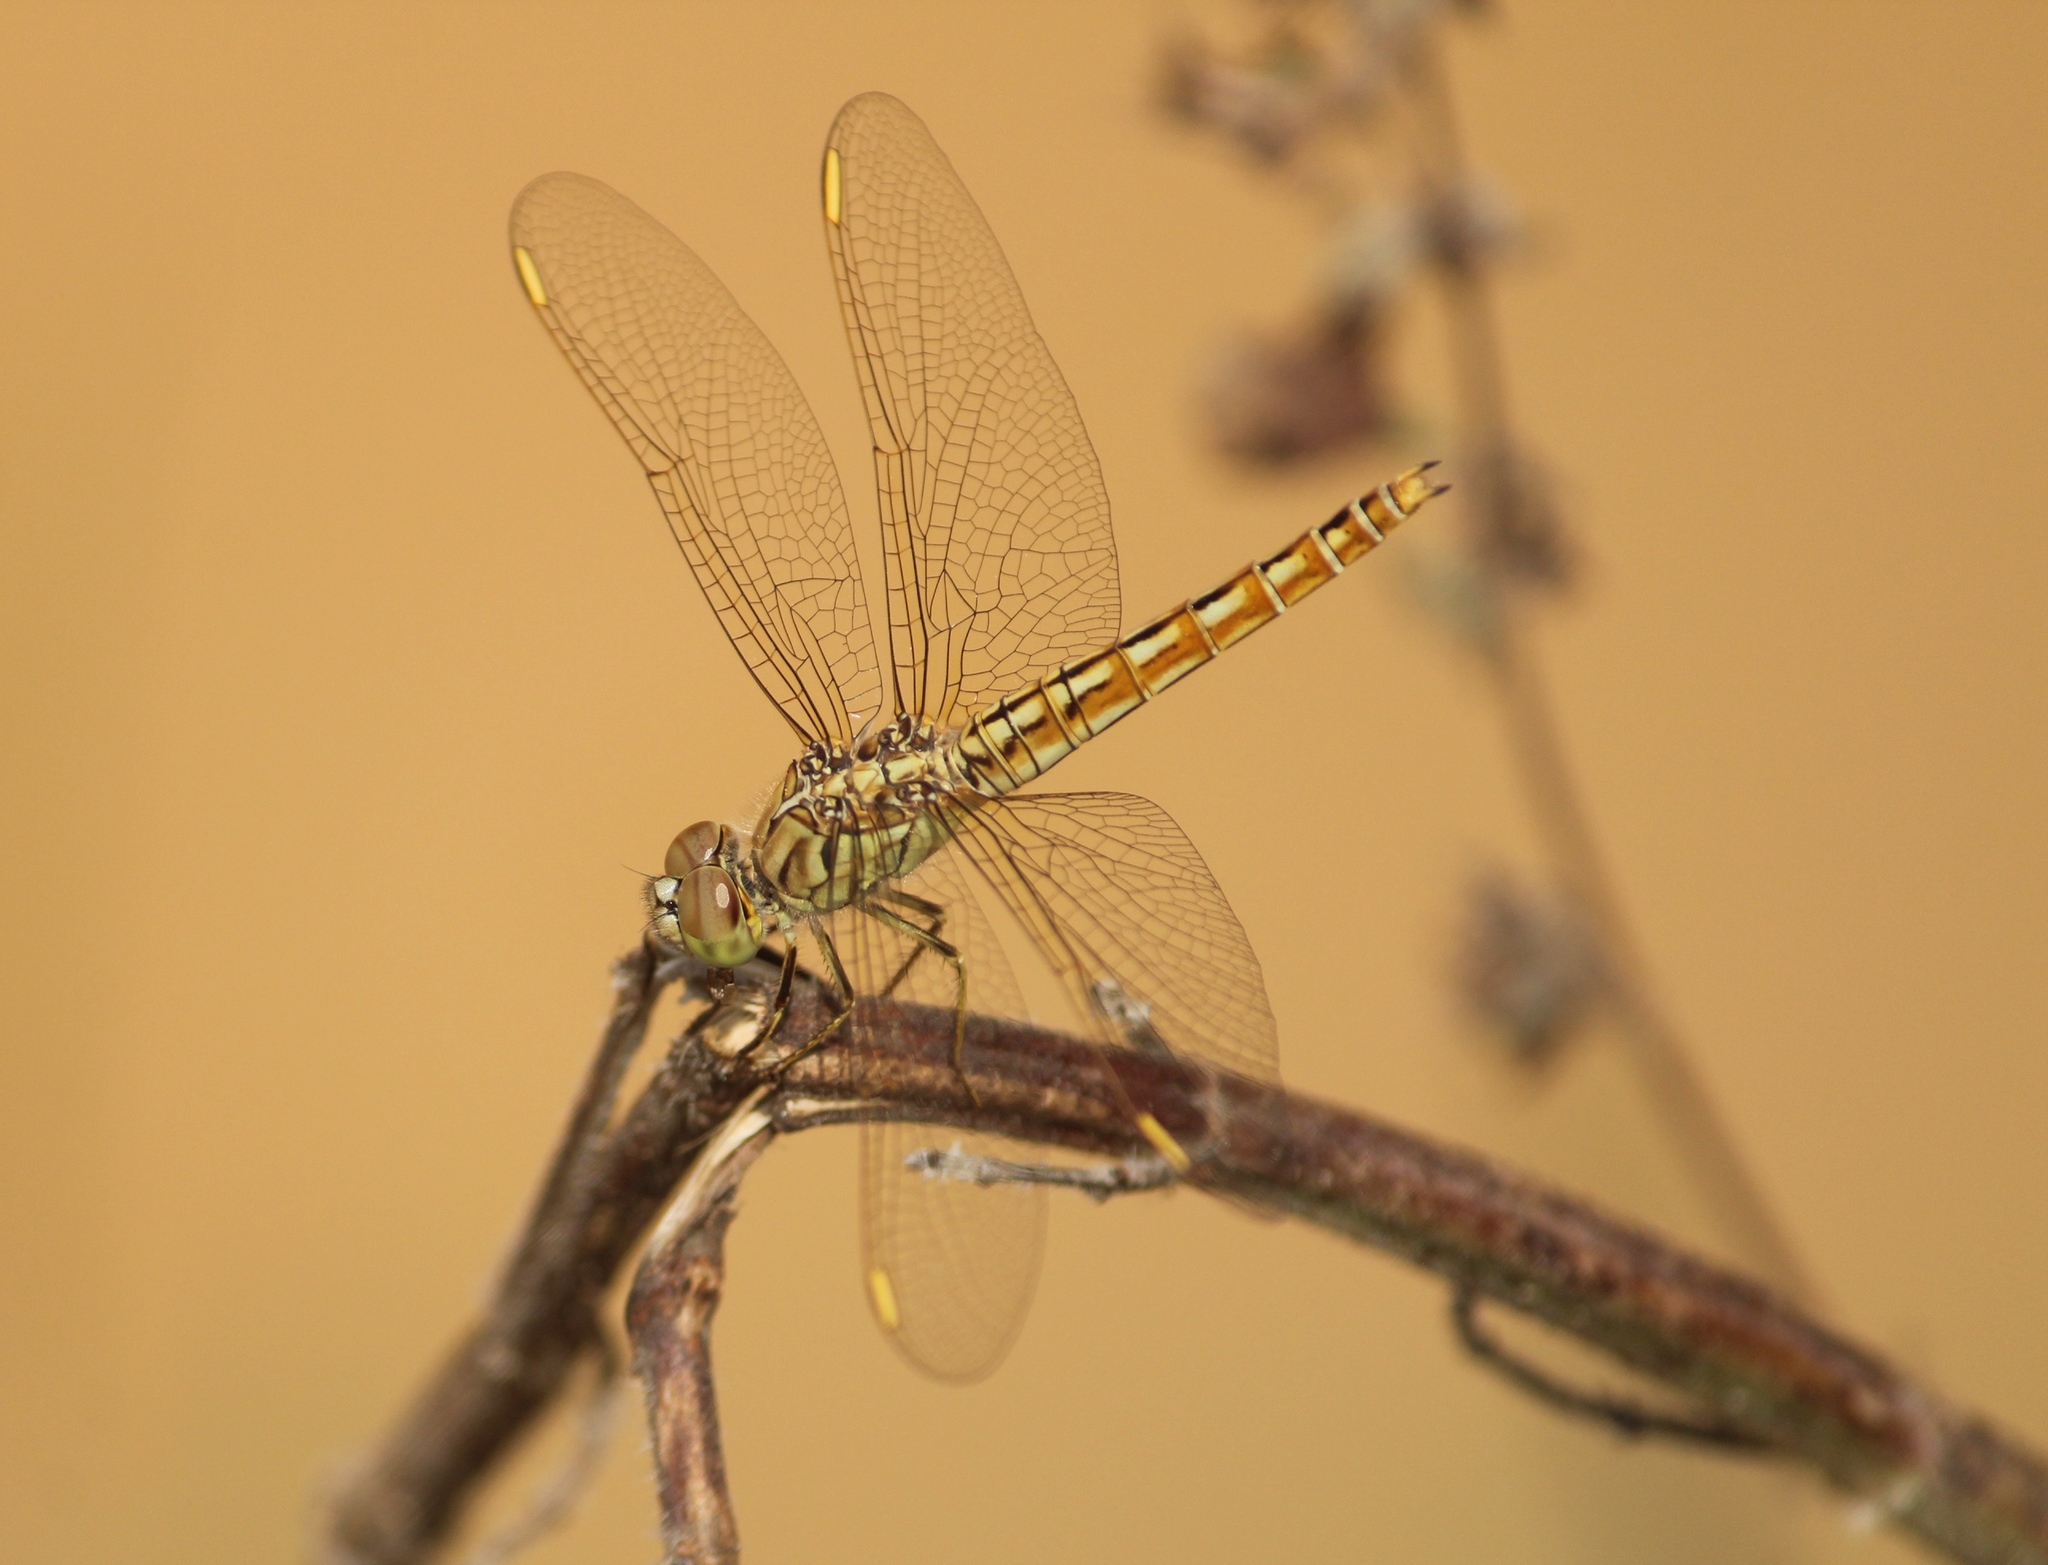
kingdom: Animalia
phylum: Arthropoda
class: Insecta
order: Odonata
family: Libellulidae
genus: Brachythemis
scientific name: Brachythemis contaminata
